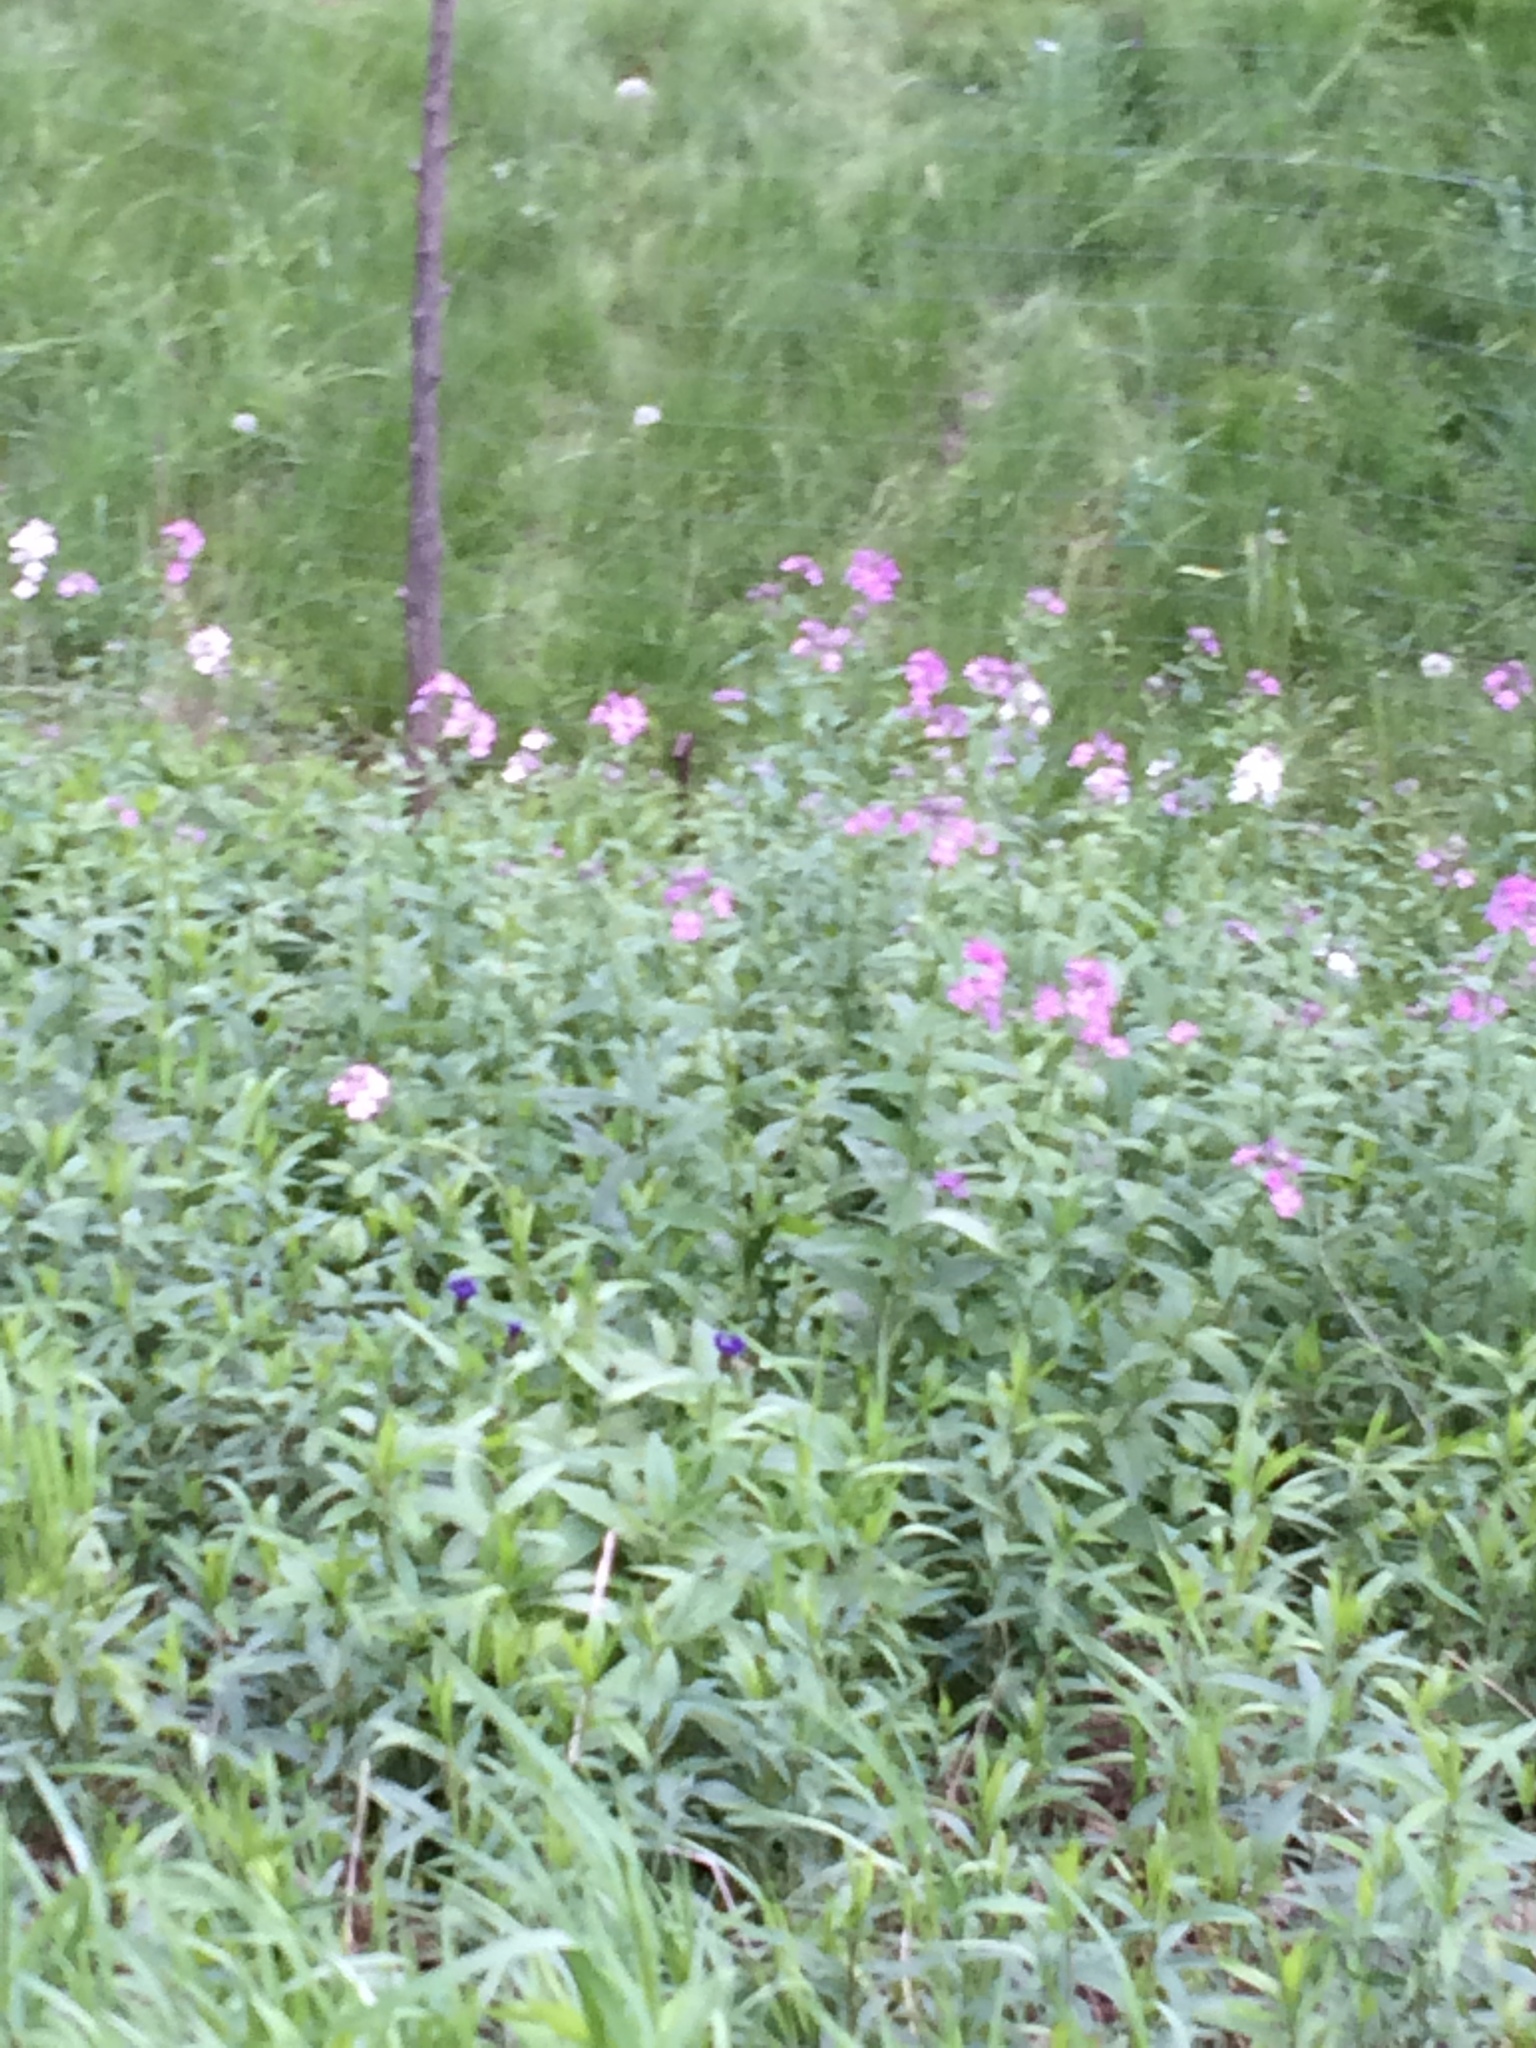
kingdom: Plantae
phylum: Tracheophyta
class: Magnoliopsida
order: Brassicales
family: Brassicaceae
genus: Hesperis
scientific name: Hesperis matronalis
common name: Dame's-violet
